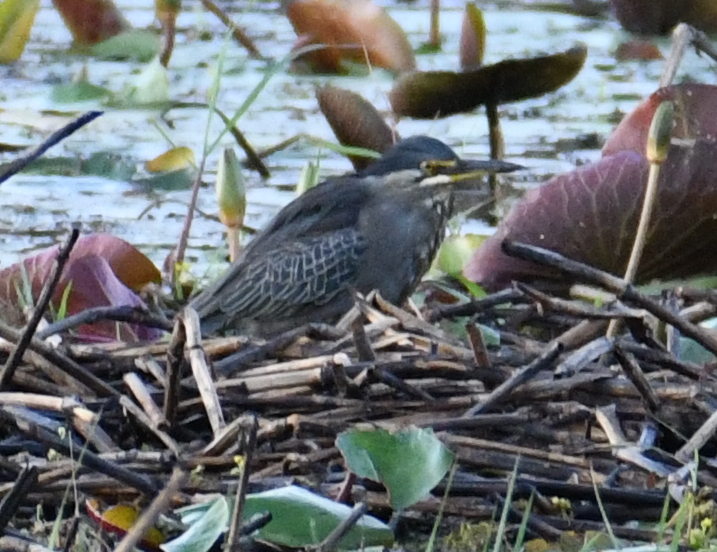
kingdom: Animalia
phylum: Chordata
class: Aves
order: Pelecaniformes
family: Ardeidae
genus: Butorides
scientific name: Butorides striata
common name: Striated heron
